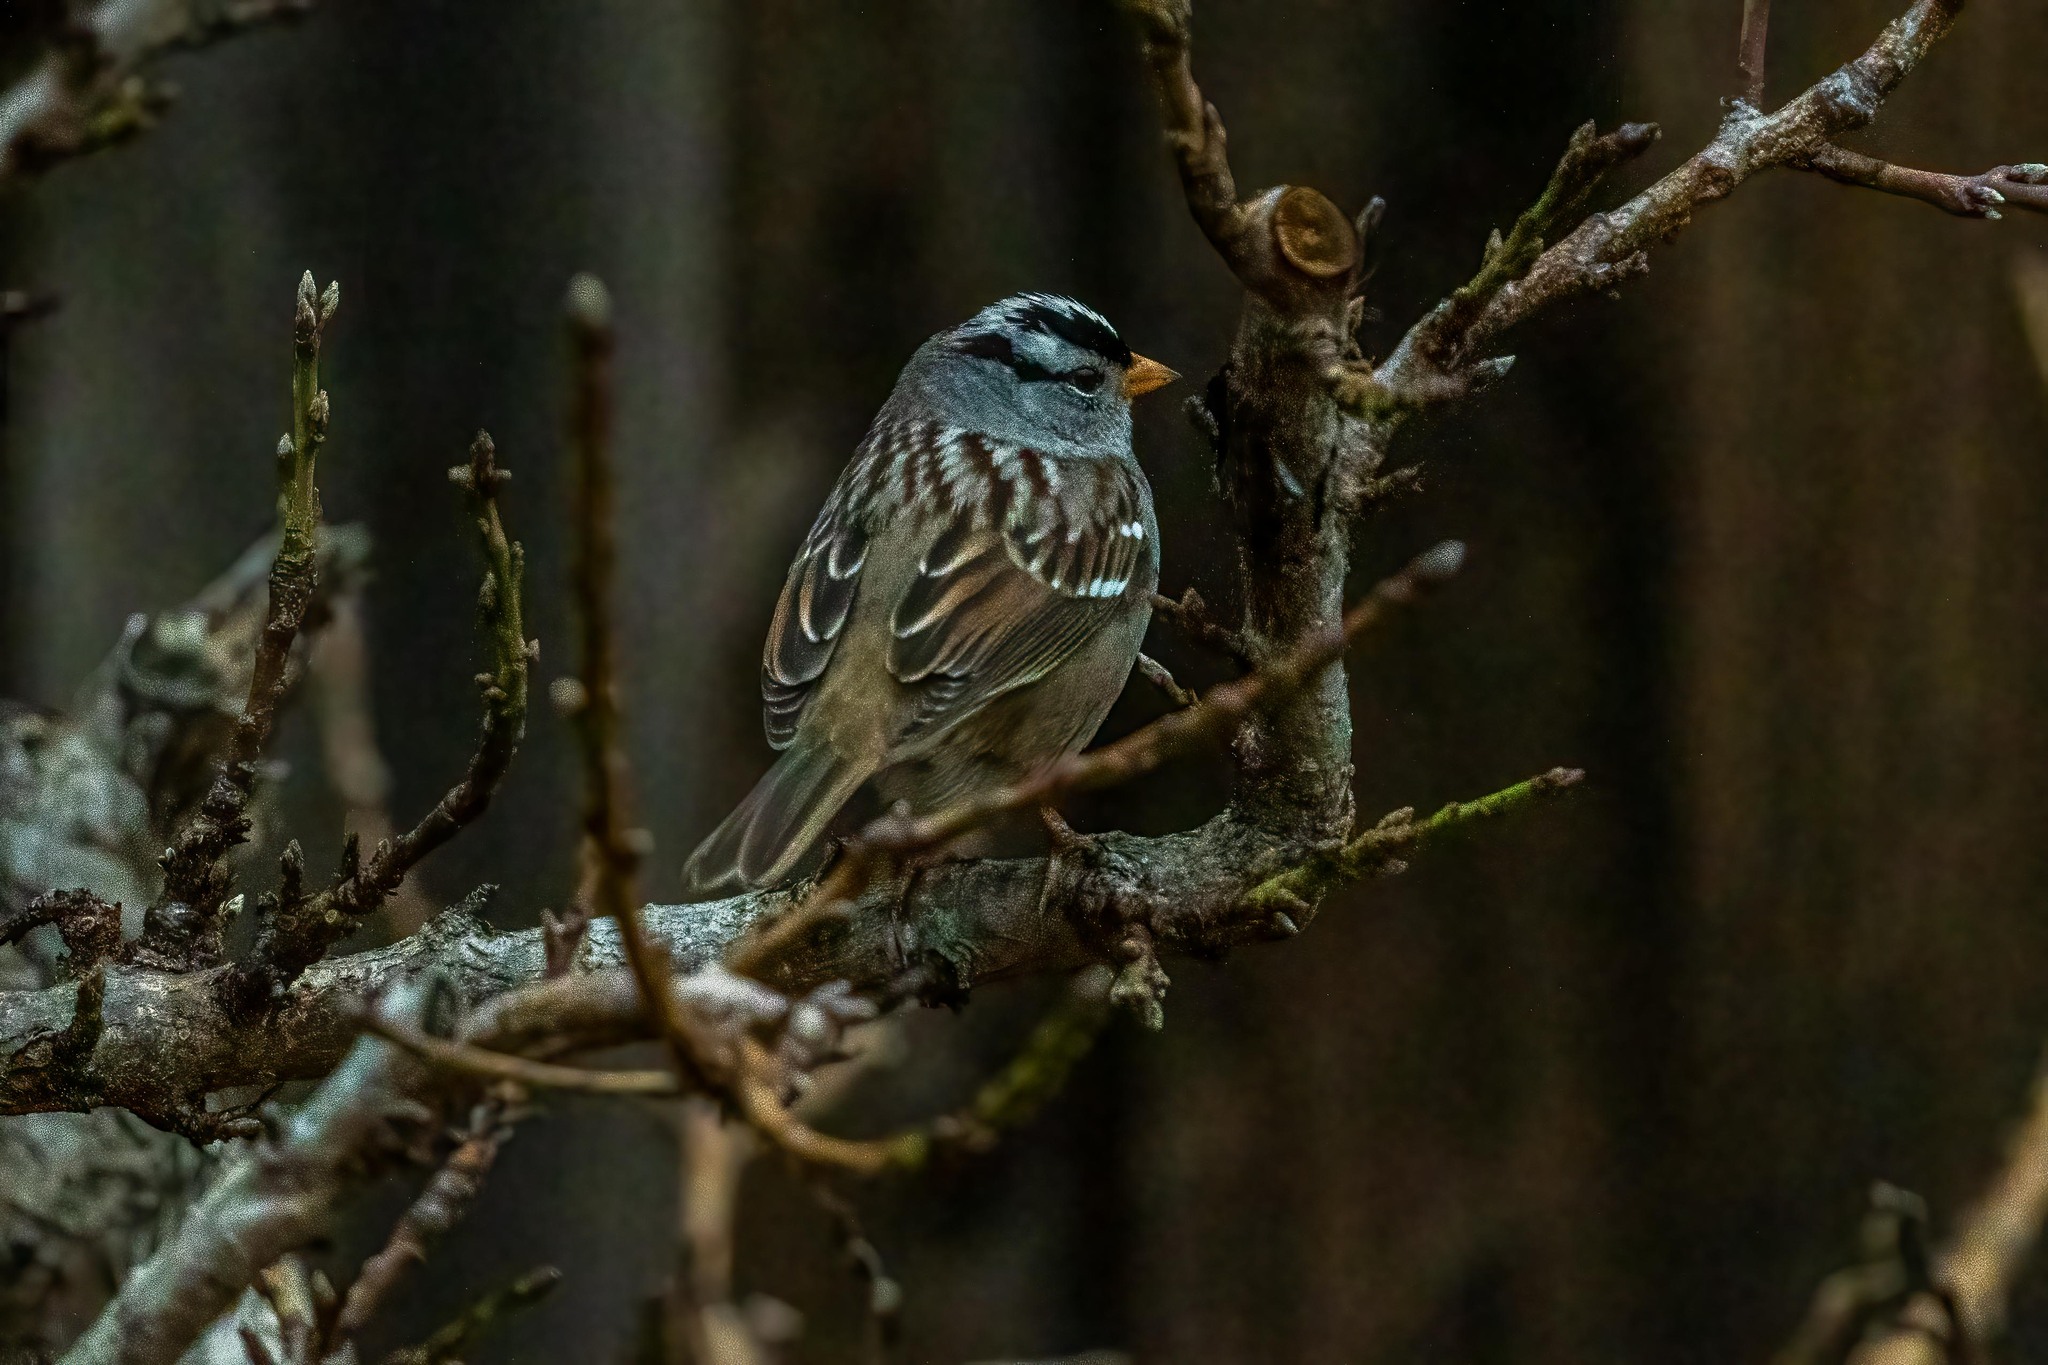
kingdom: Animalia
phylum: Chordata
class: Aves
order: Passeriformes
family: Passerellidae
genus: Zonotrichia
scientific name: Zonotrichia leucophrys
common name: White-crowned sparrow
